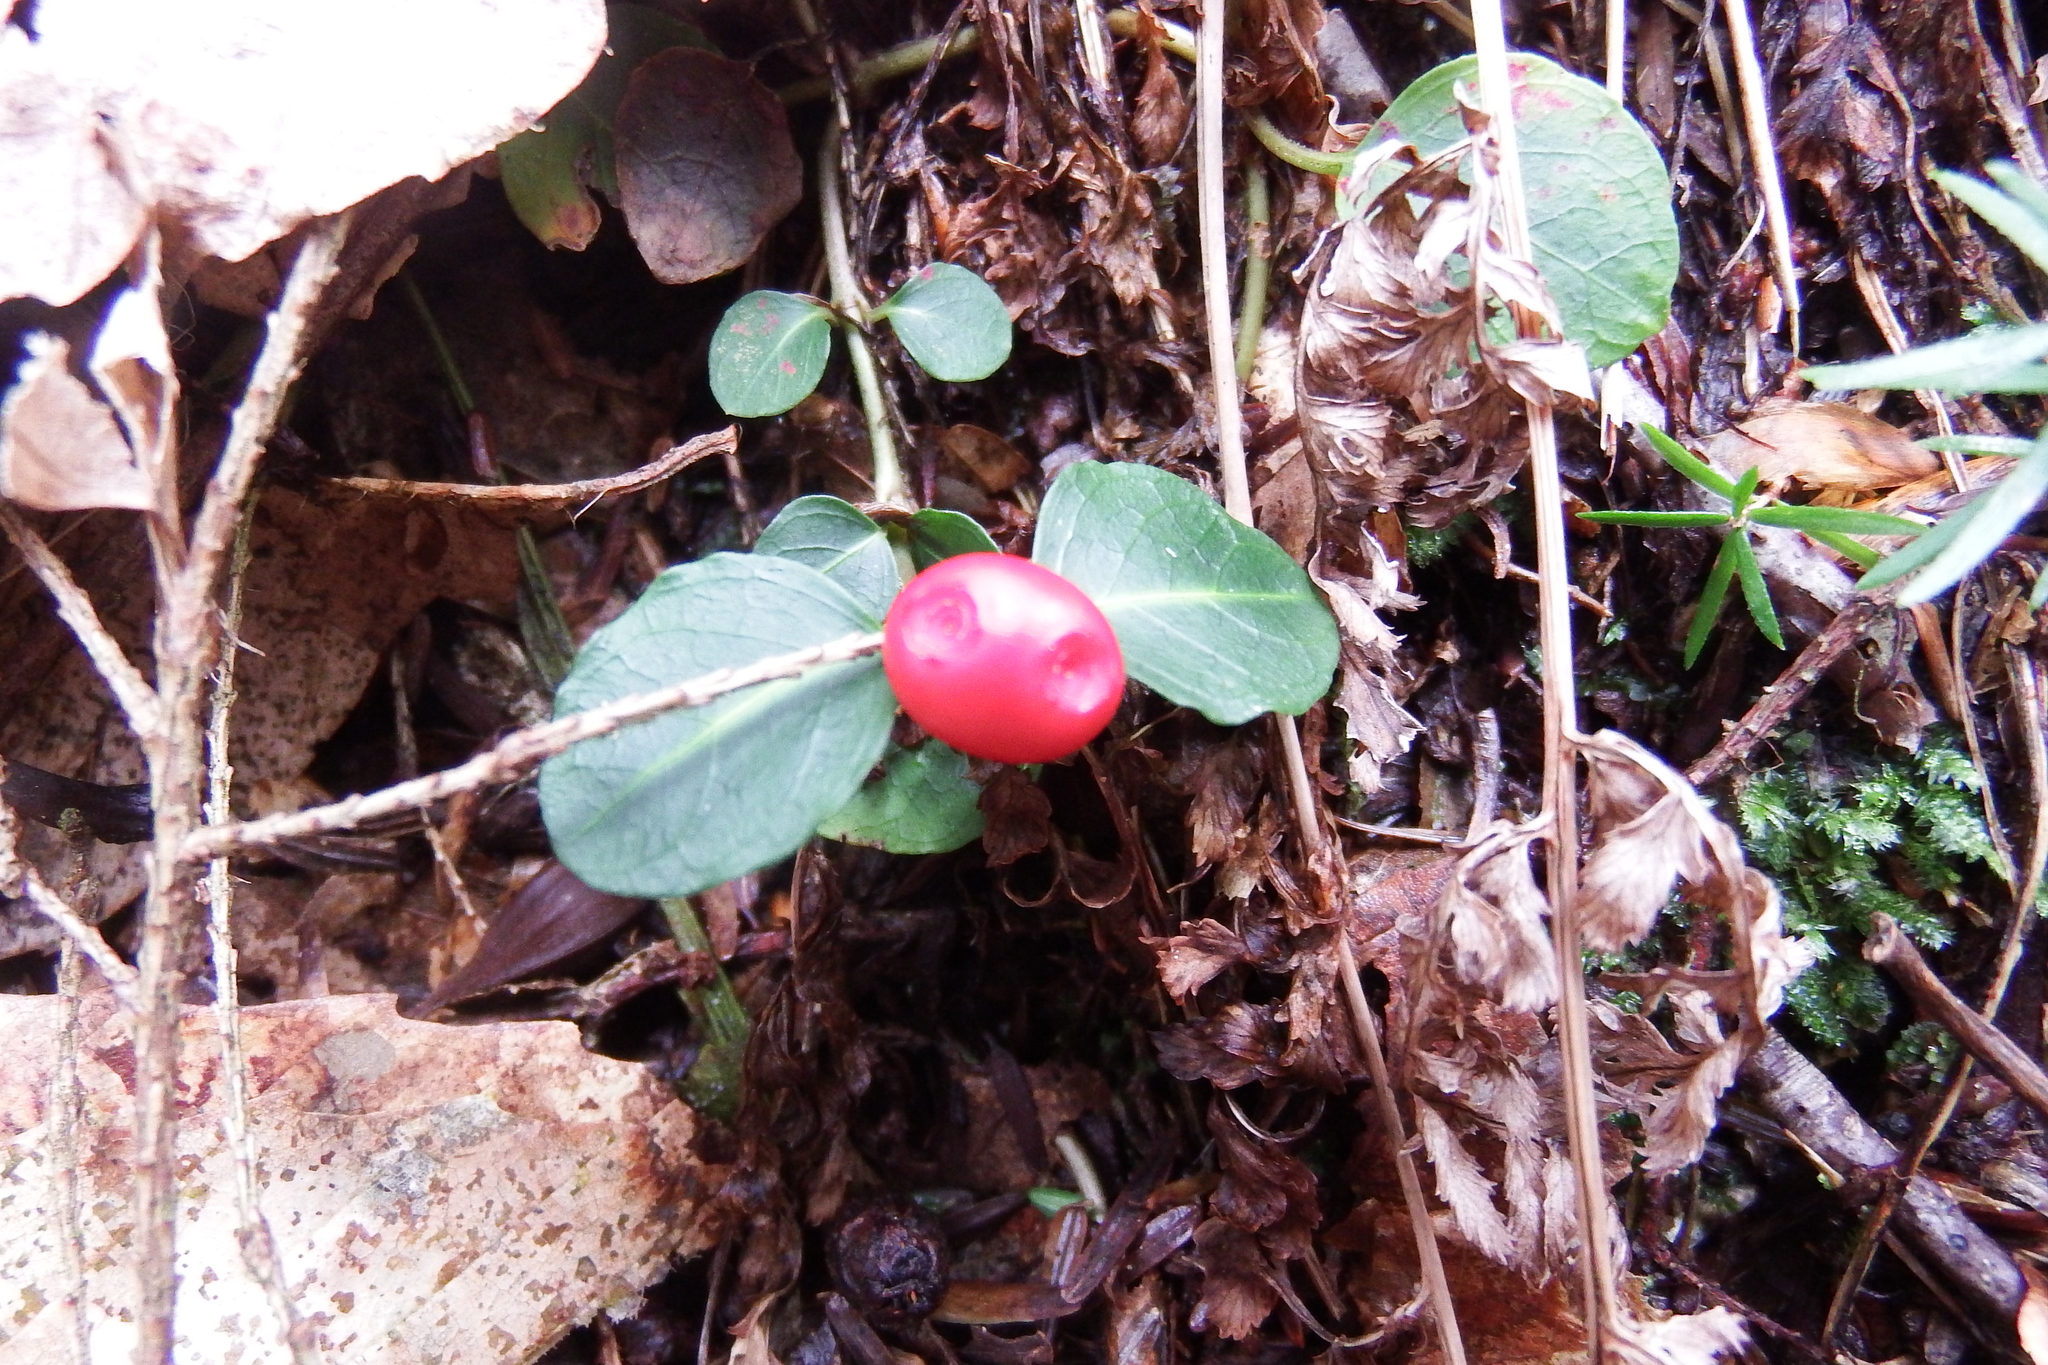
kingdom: Plantae
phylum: Tracheophyta
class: Magnoliopsida
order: Gentianales
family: Rubiaceae
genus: Mitchella
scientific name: Mitchella repens
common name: Partridge-berry
